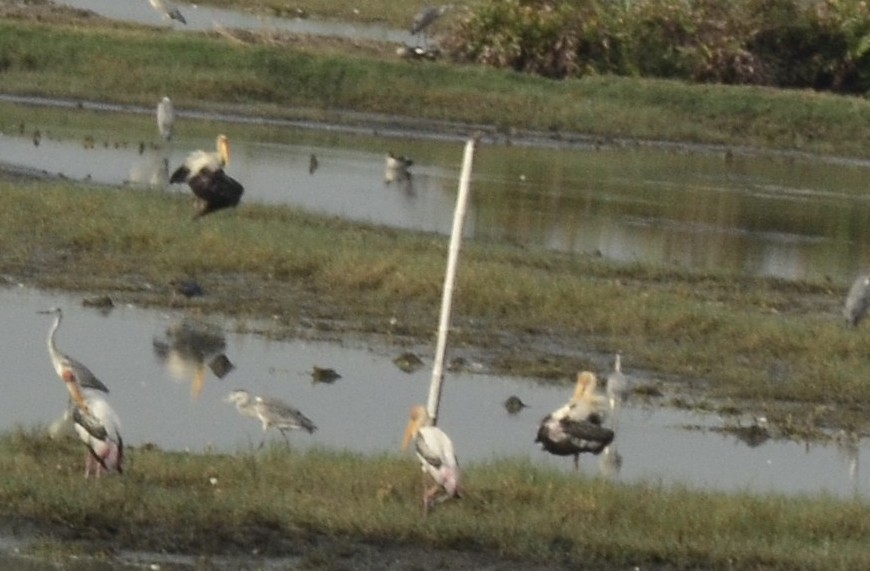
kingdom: Animalia
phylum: Chordata
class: Aves
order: Ciconiiformes
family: Ciconiidae
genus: Mycteria
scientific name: Mycteria leucocephala
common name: Painted stork
